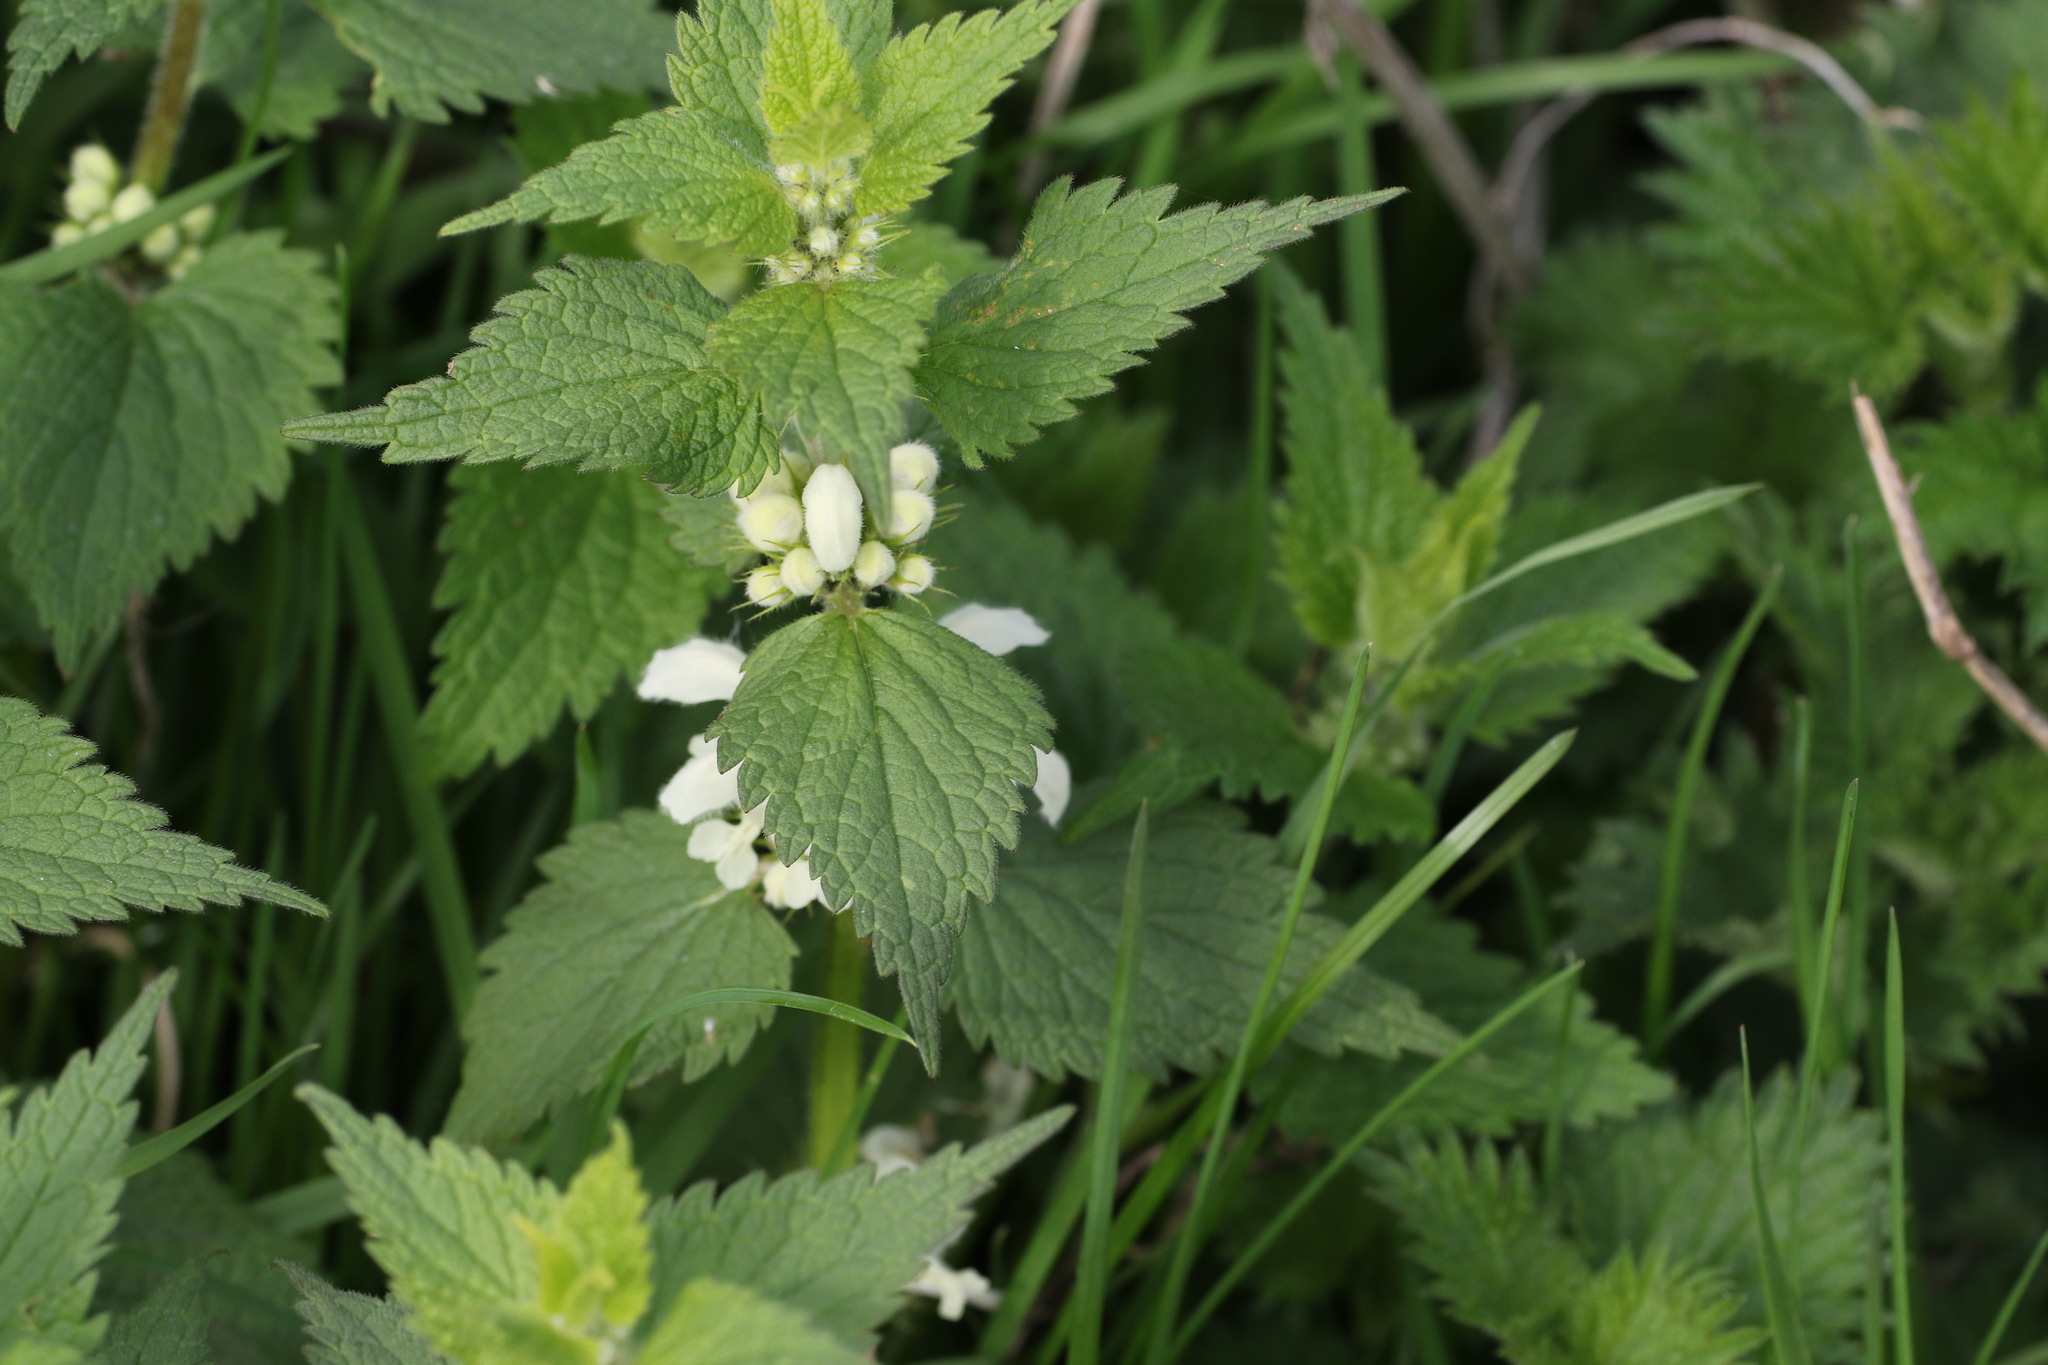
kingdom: Plantae
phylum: Tracheophyta
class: Magnoliopsida
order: Lamiales
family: Lamiaceae
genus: Lamium
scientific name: Lamium album
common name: White dead-nettle
